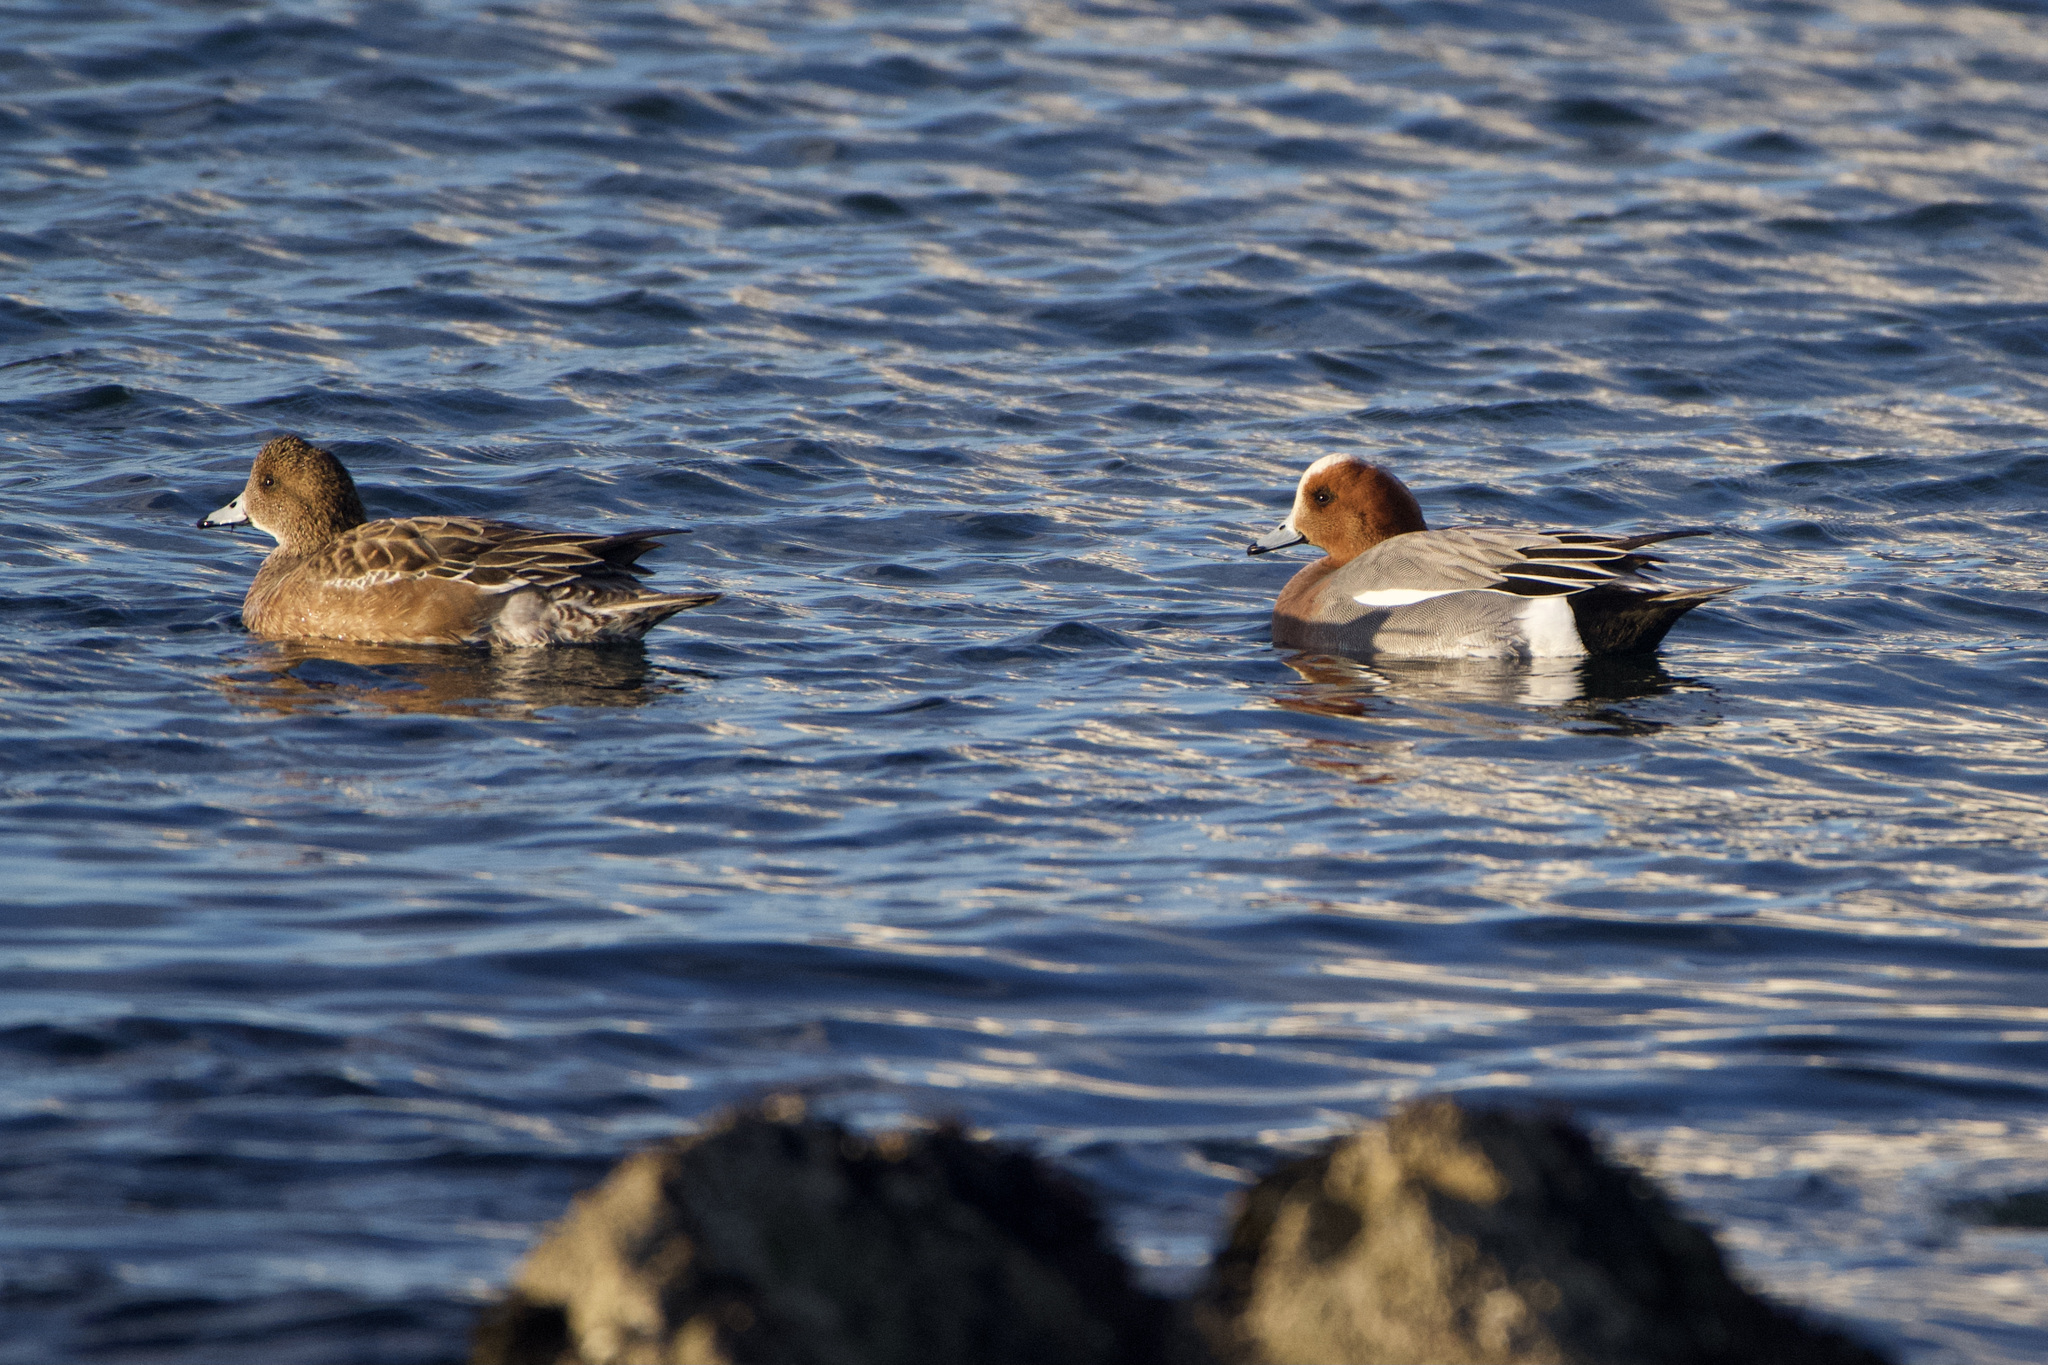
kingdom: Animalia
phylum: Chordata
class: Aves
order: Anseriformes
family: Anatidae
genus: Mareca
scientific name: Mareca penelope
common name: Eurasian wigeon
